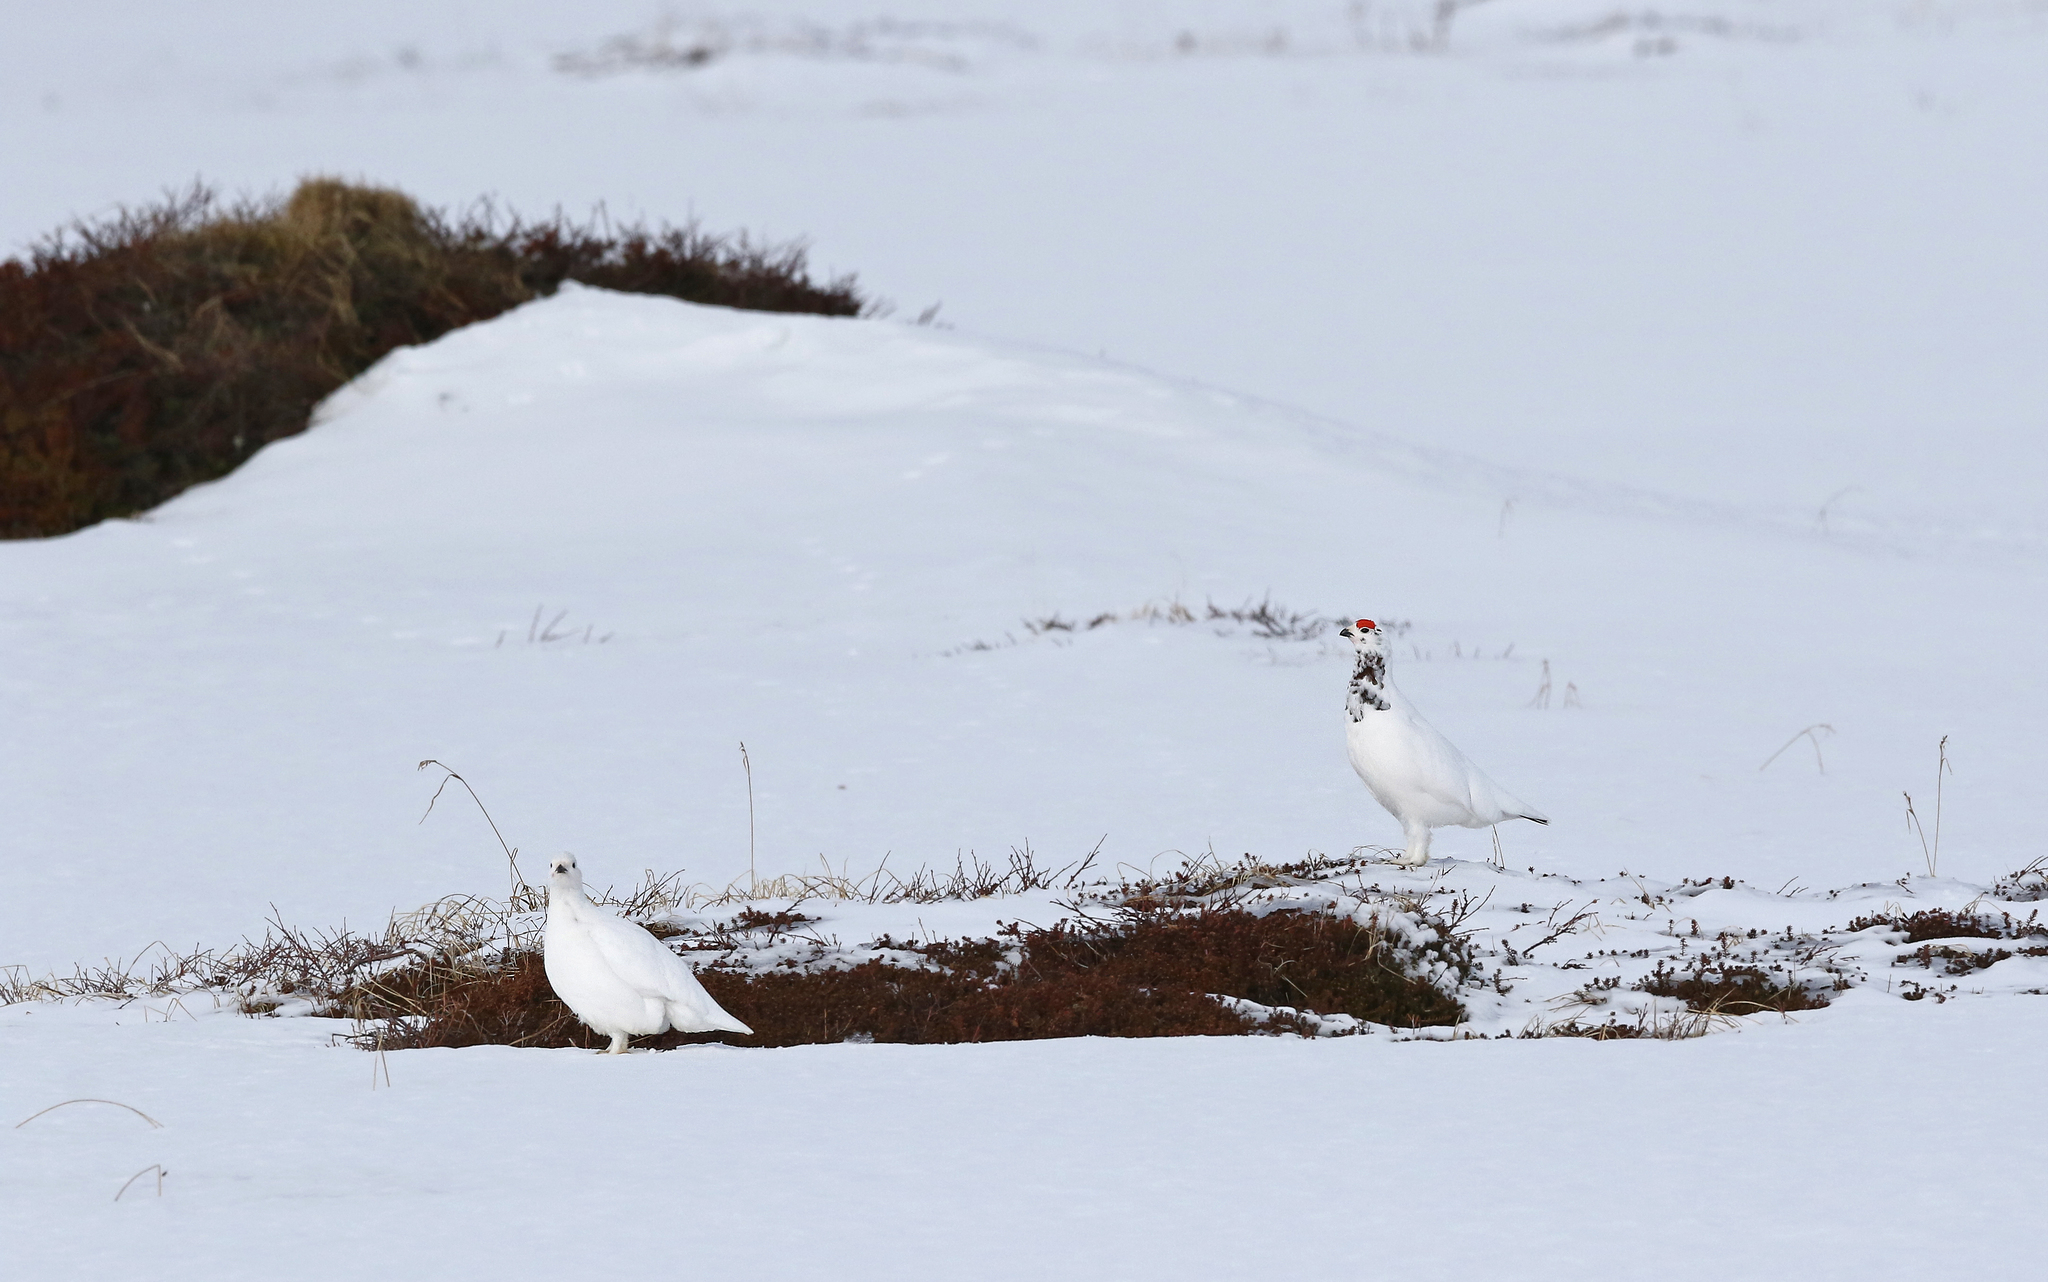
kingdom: Animalia
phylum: Chordata
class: Aves
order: Galliformes
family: Phasianidae
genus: Lagopus
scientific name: Lagopus lagopus
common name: Willow ptarmigan
